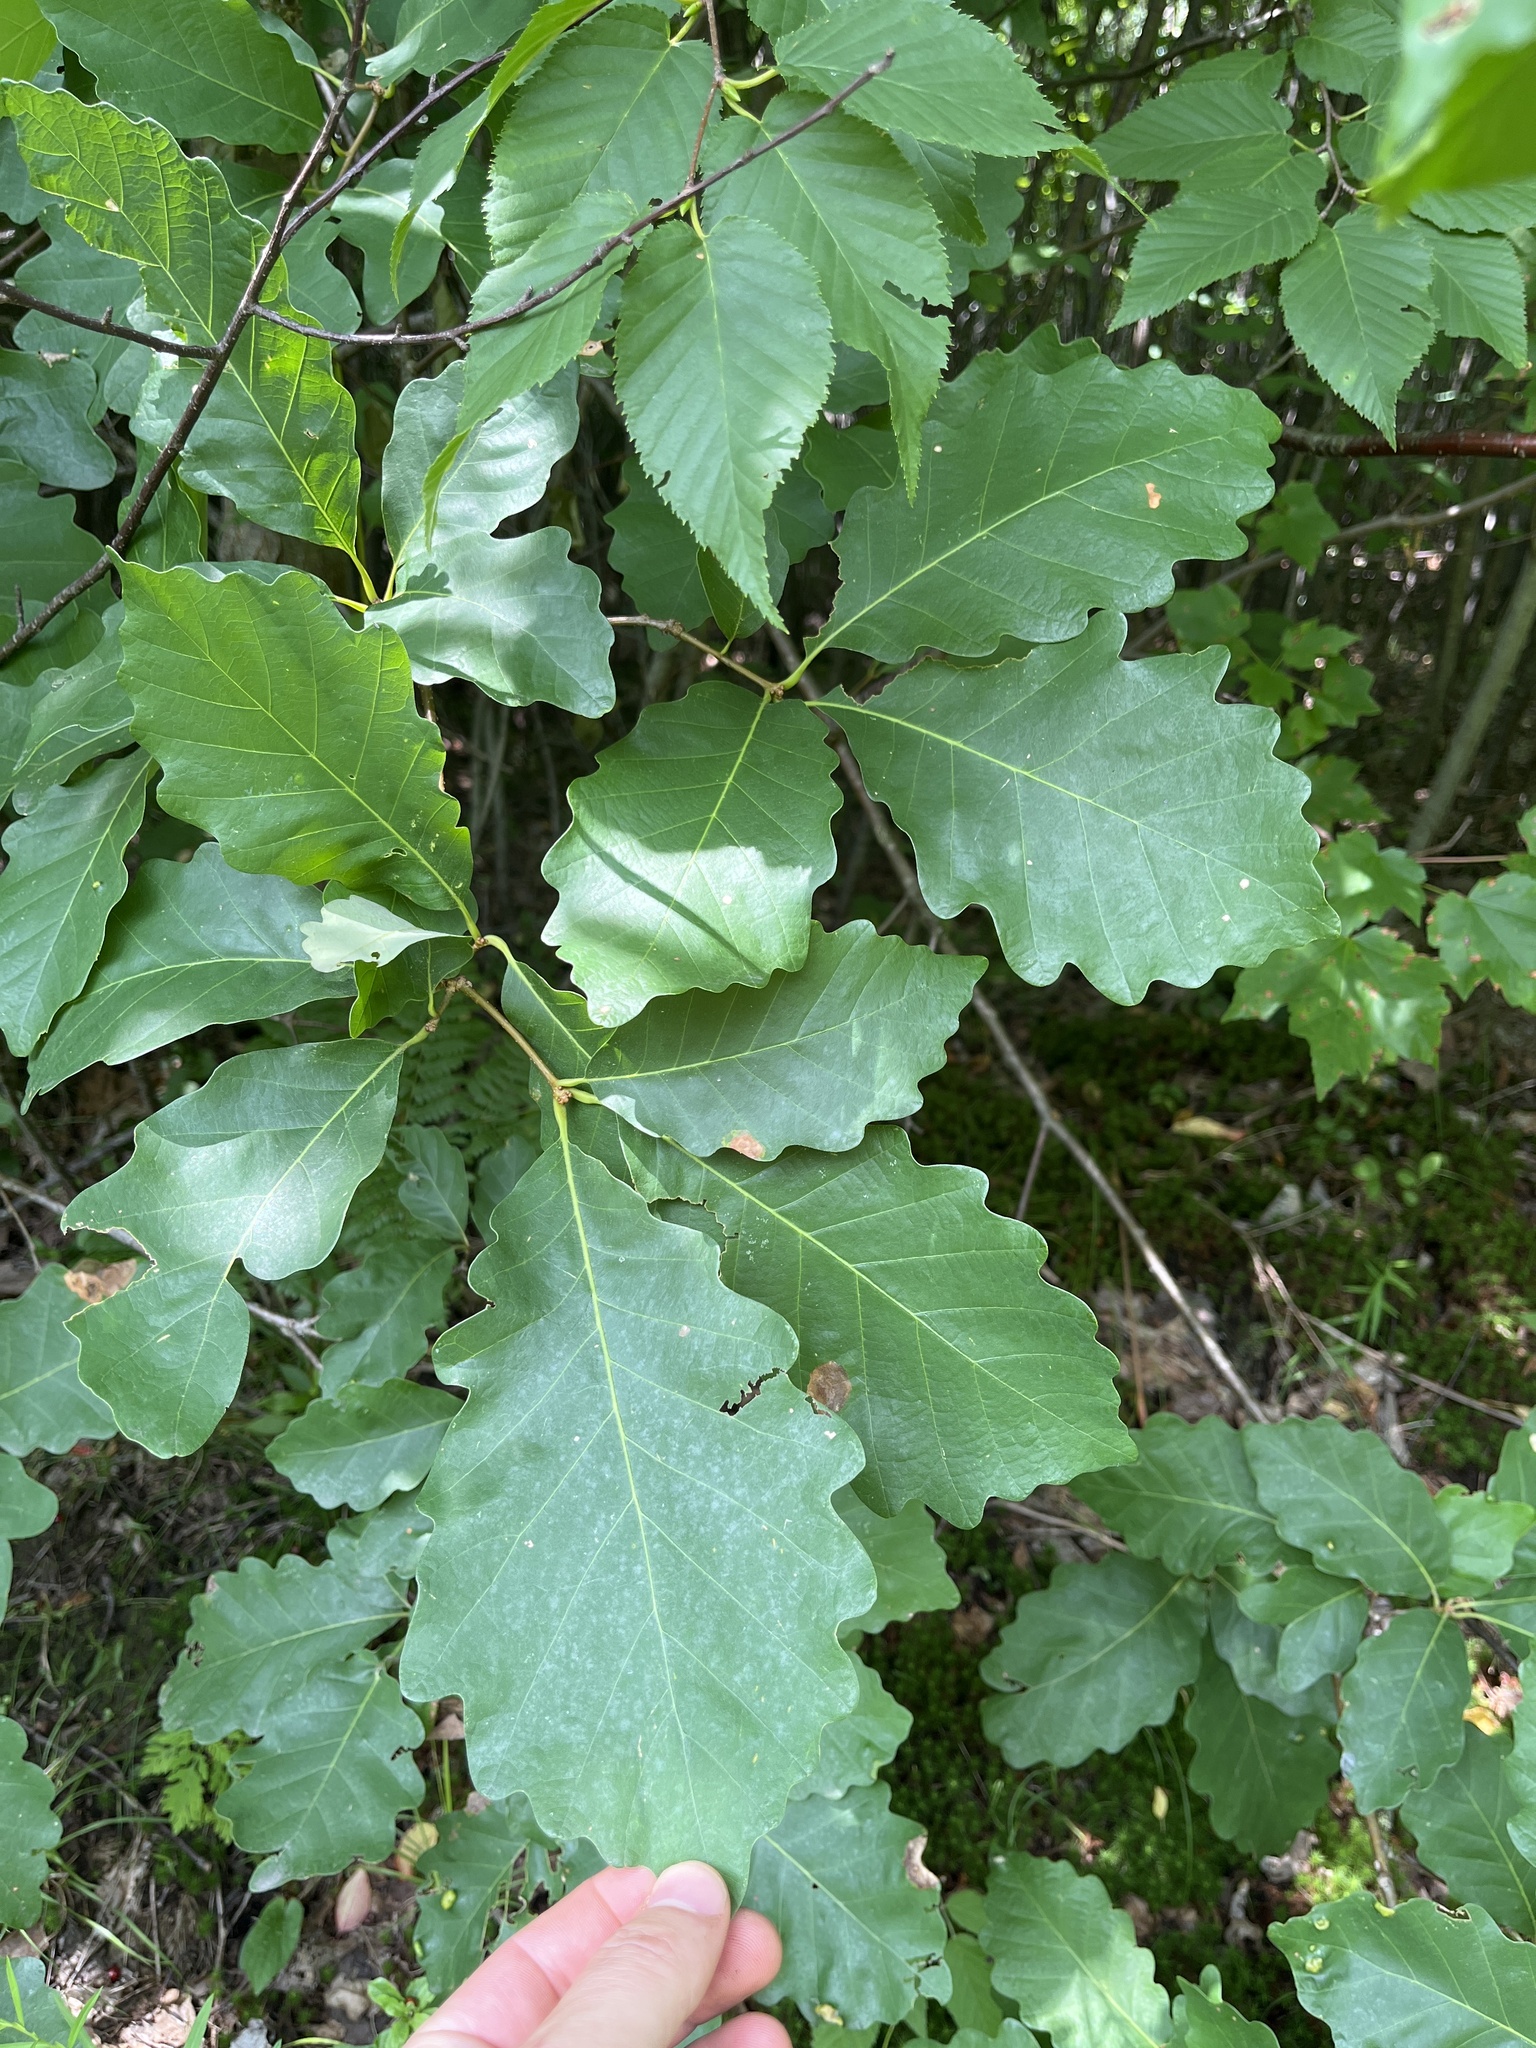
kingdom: Plantae
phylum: Tracheophyta
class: Magnoliopsida
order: Fagales
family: Fagaceae
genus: Quercus
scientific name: Quercus montana
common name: Chestnut oak
